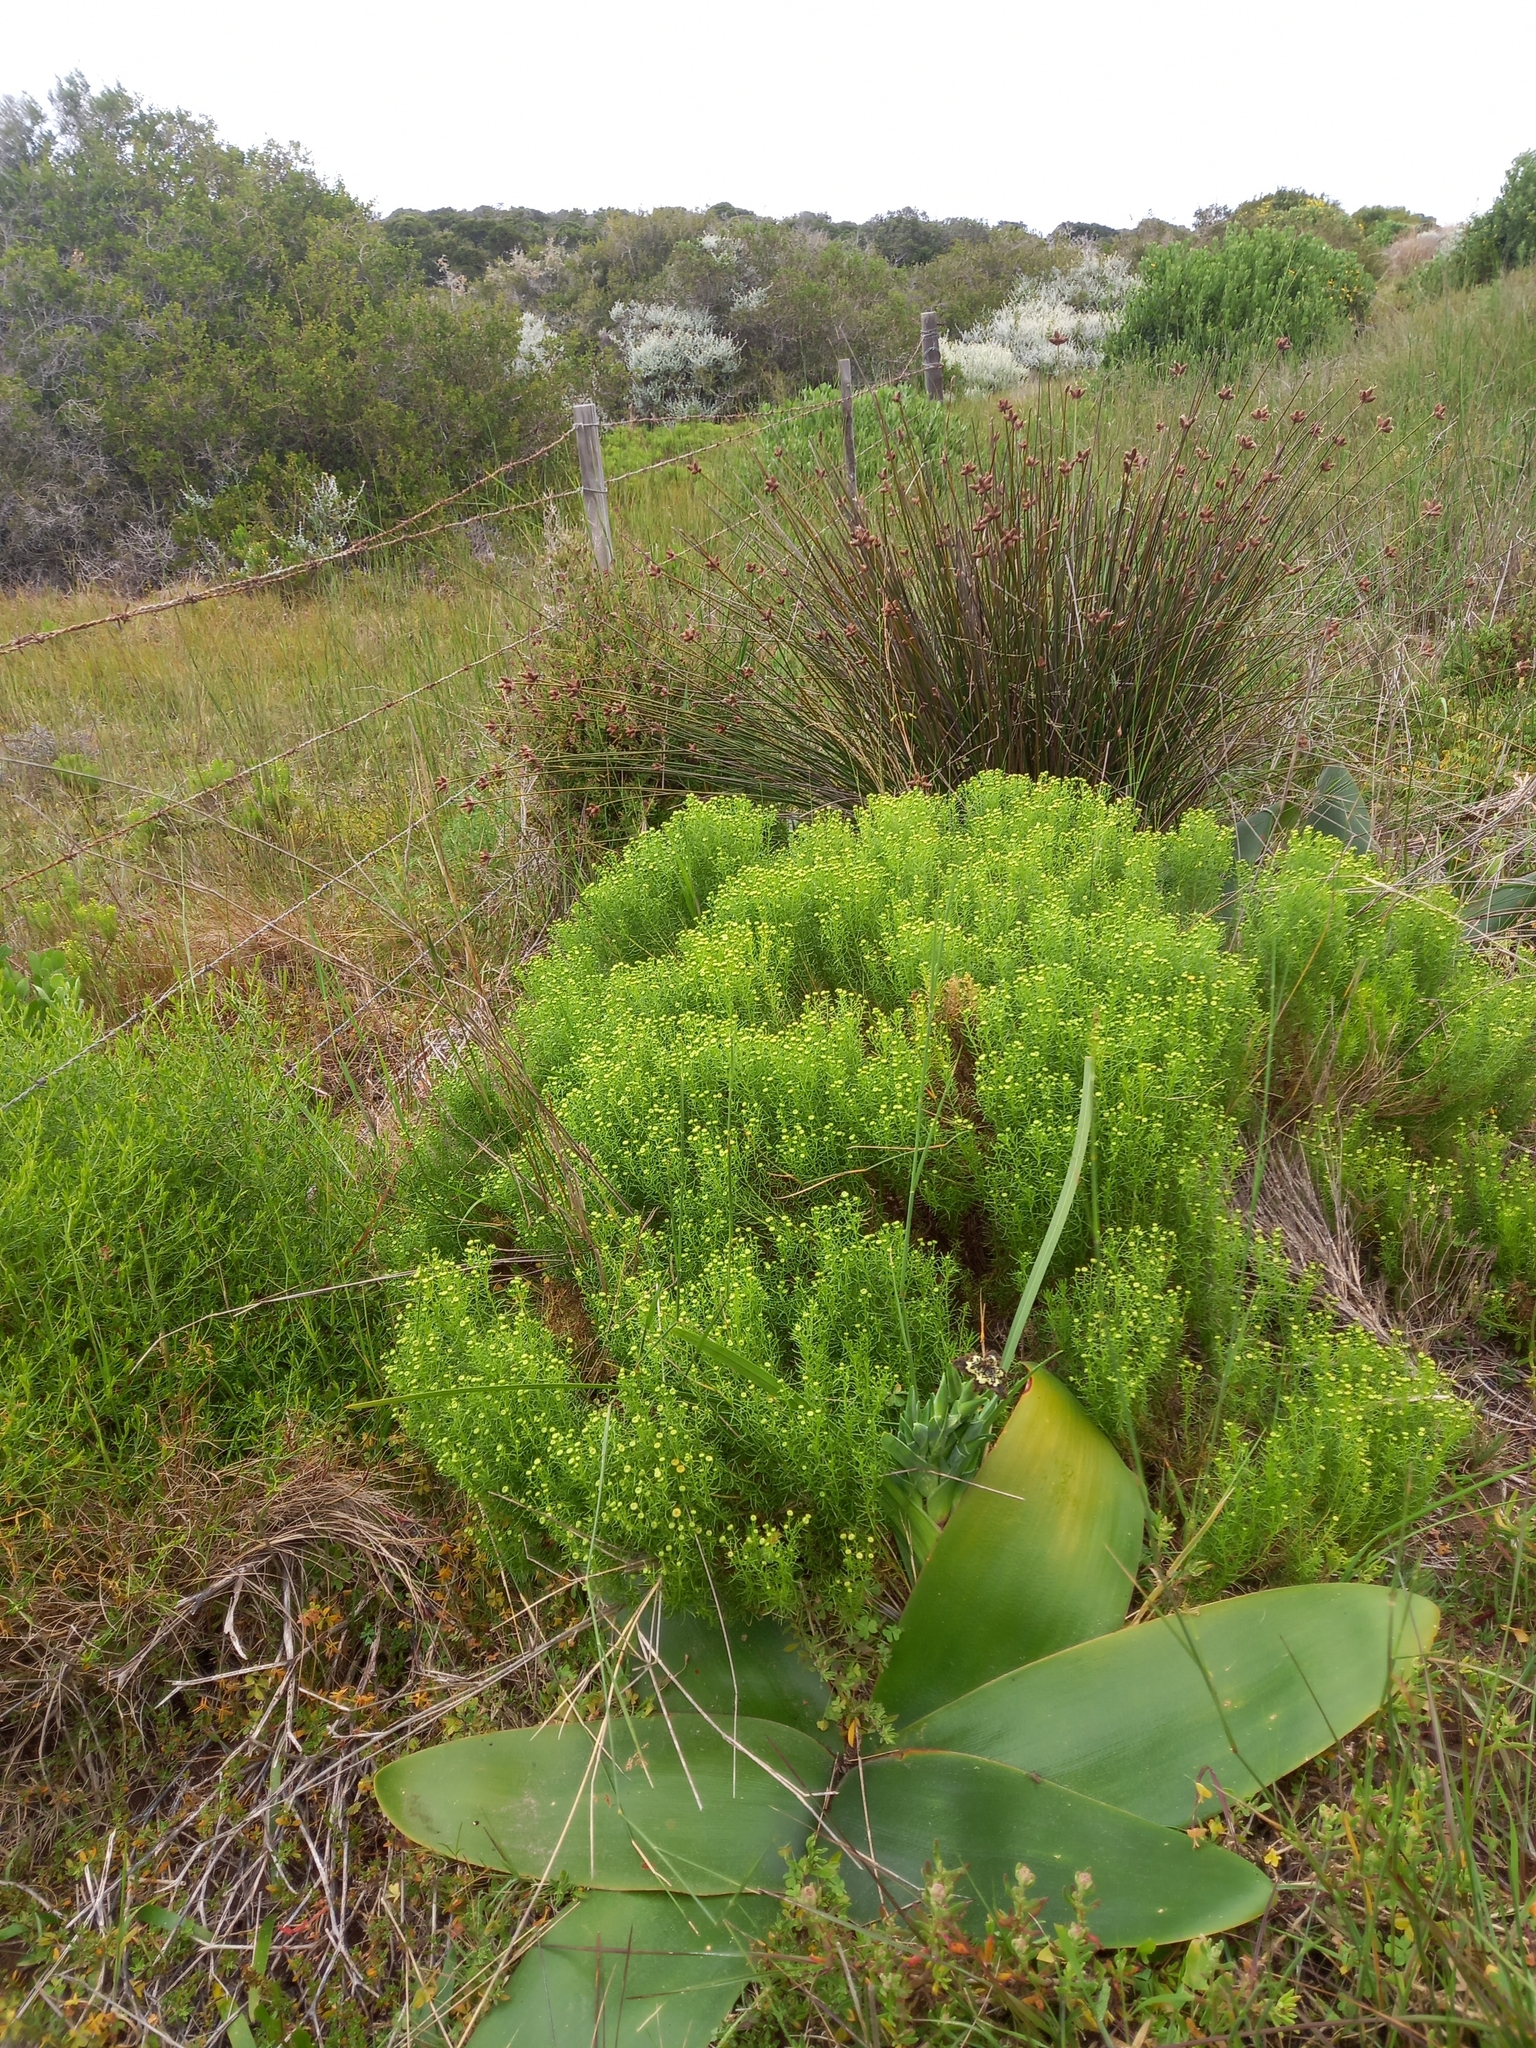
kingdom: Plantae
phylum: Tracheophyta
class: Magnoliopsida
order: Asterales
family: Asteraceae
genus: Chrysocoma
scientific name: Chrysocoma ciliata
